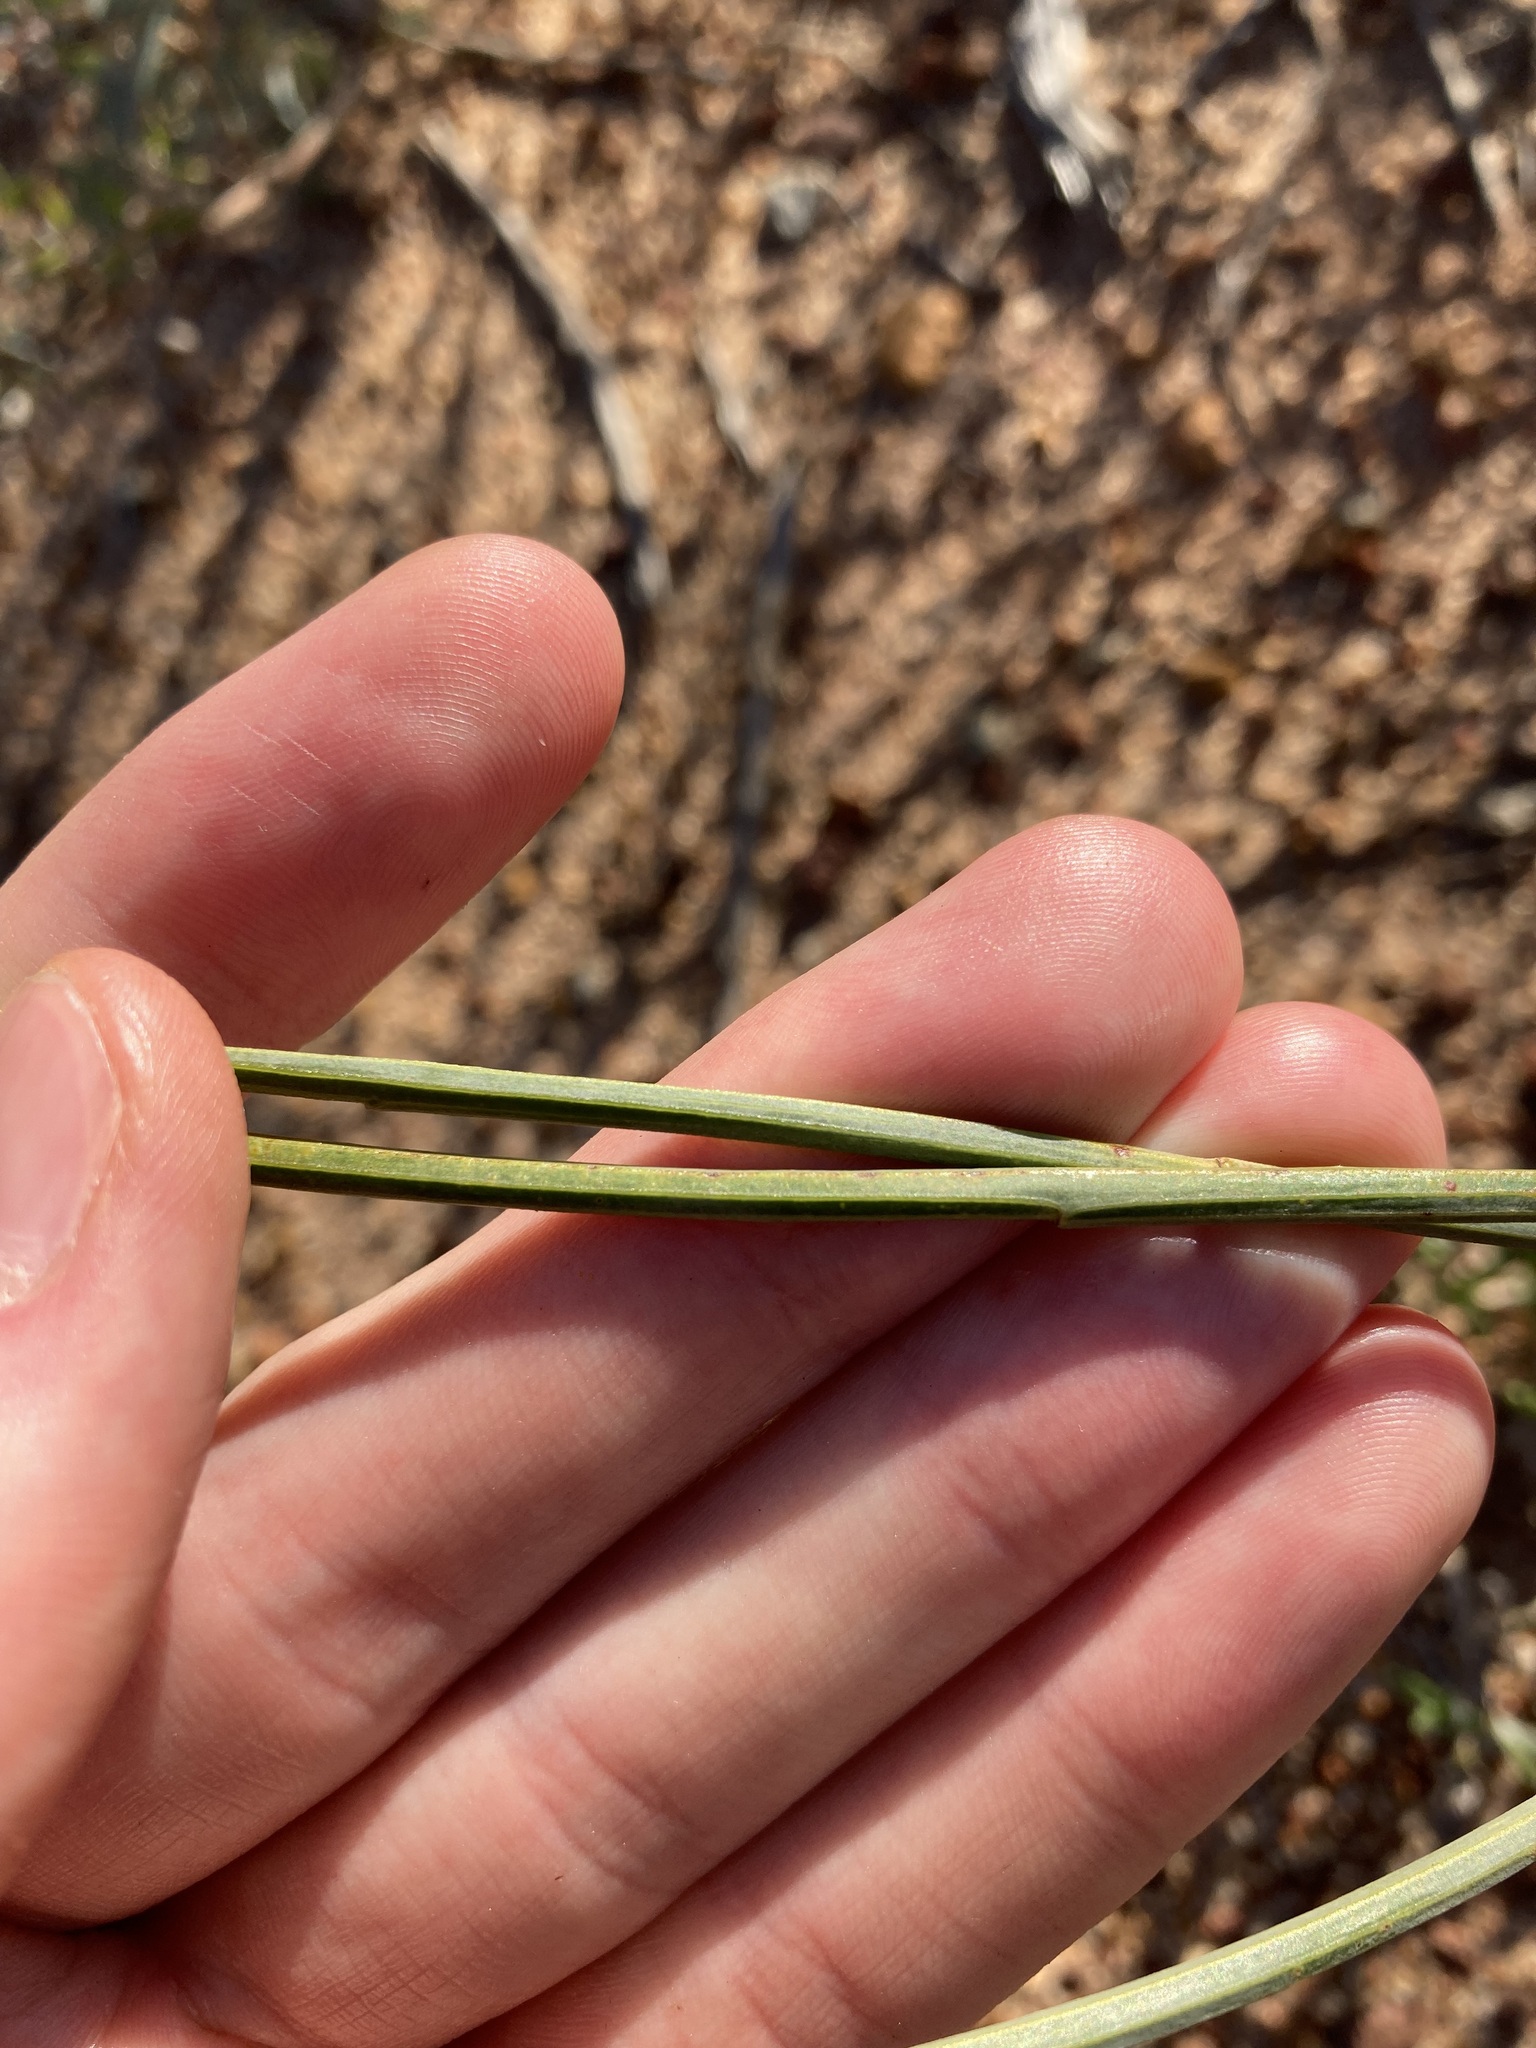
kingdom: Plantae
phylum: Tracheophyta
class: Magnoliopsida
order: Fabales
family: Fabaceae
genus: Acacia
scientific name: Acacia restiacea
